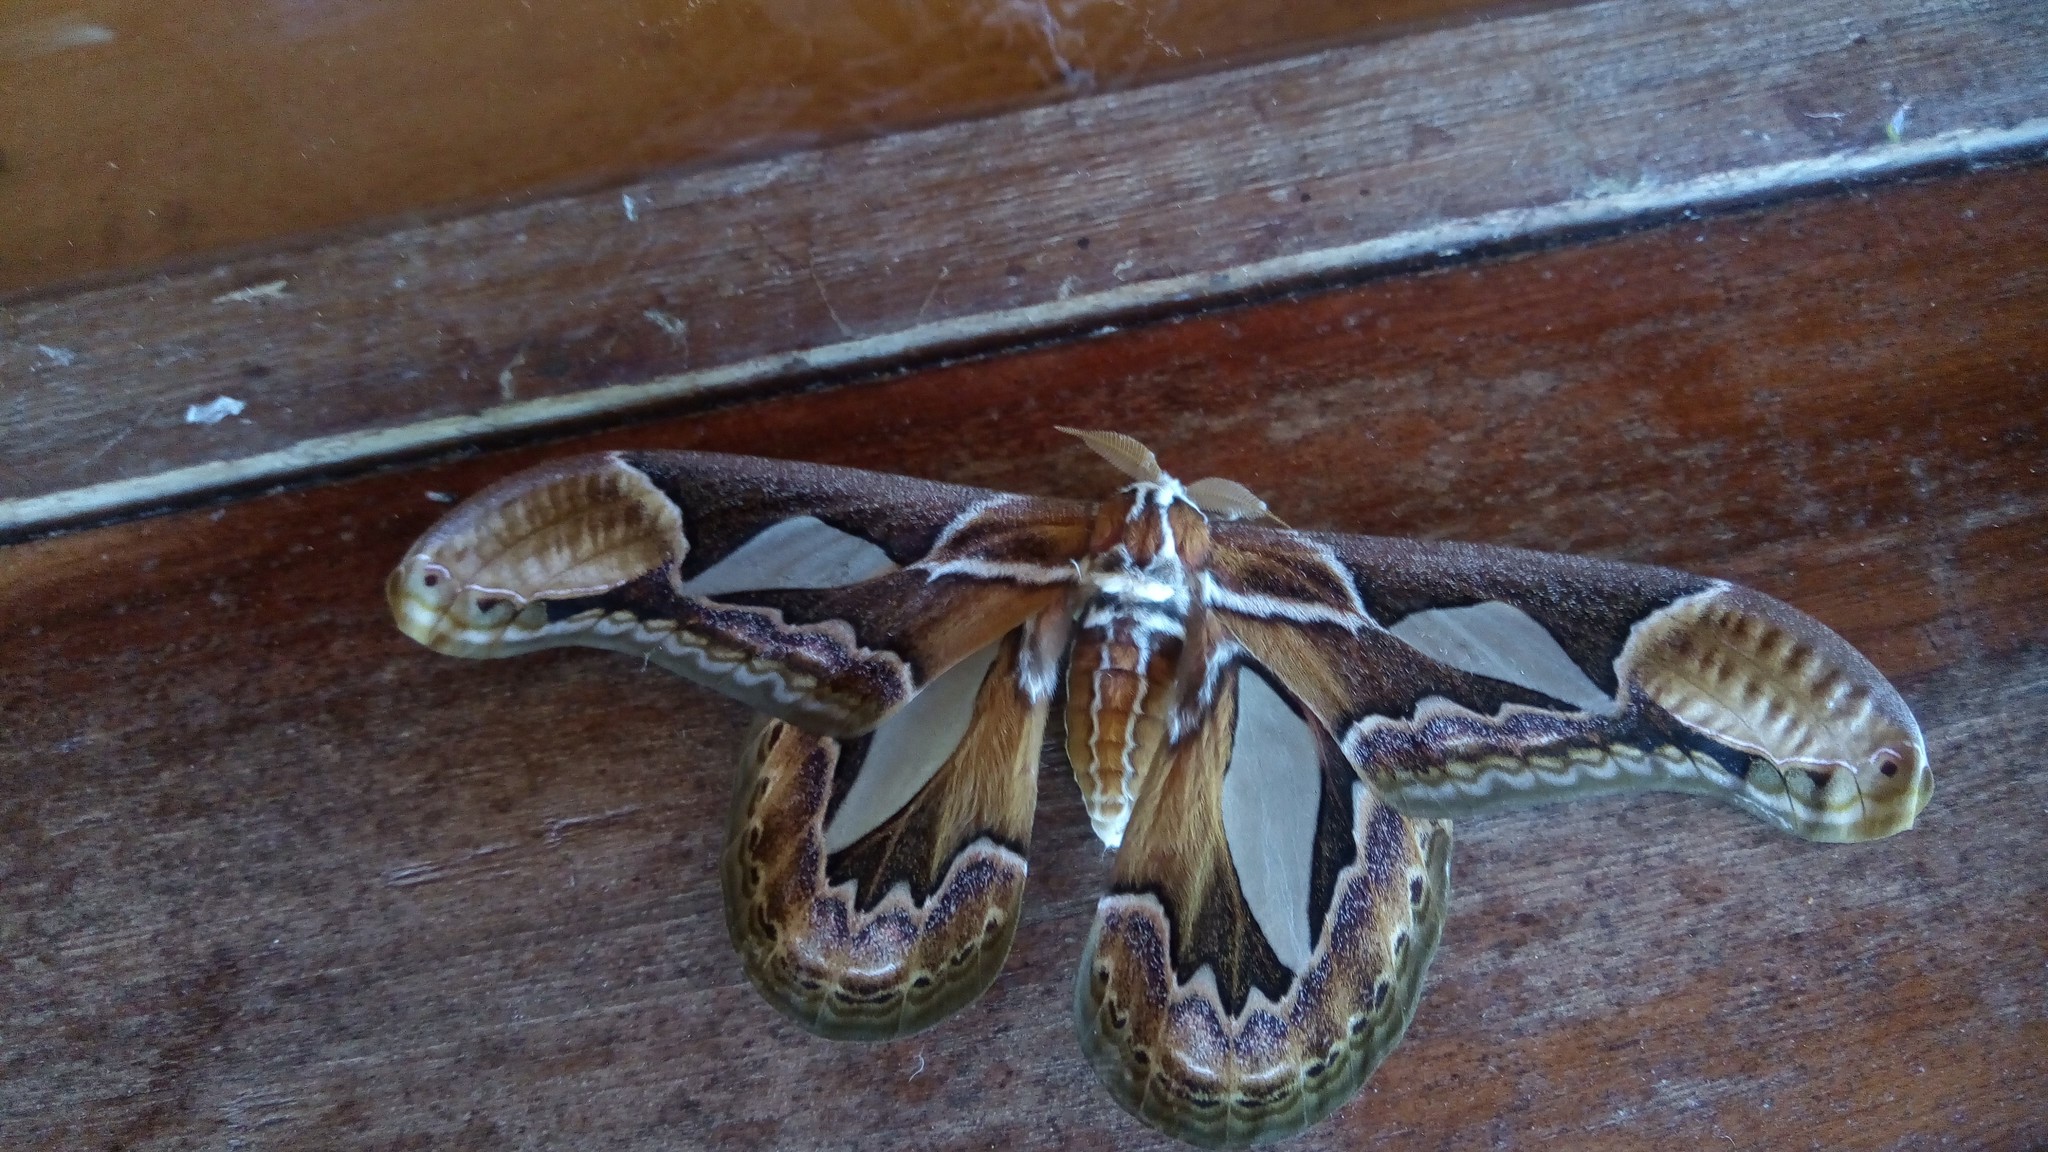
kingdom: Animalia
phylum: Arthropoda
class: Insecta
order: Lepidoptera
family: Saturniidae
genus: Rothschildia
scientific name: Rothschildia hopfferi
